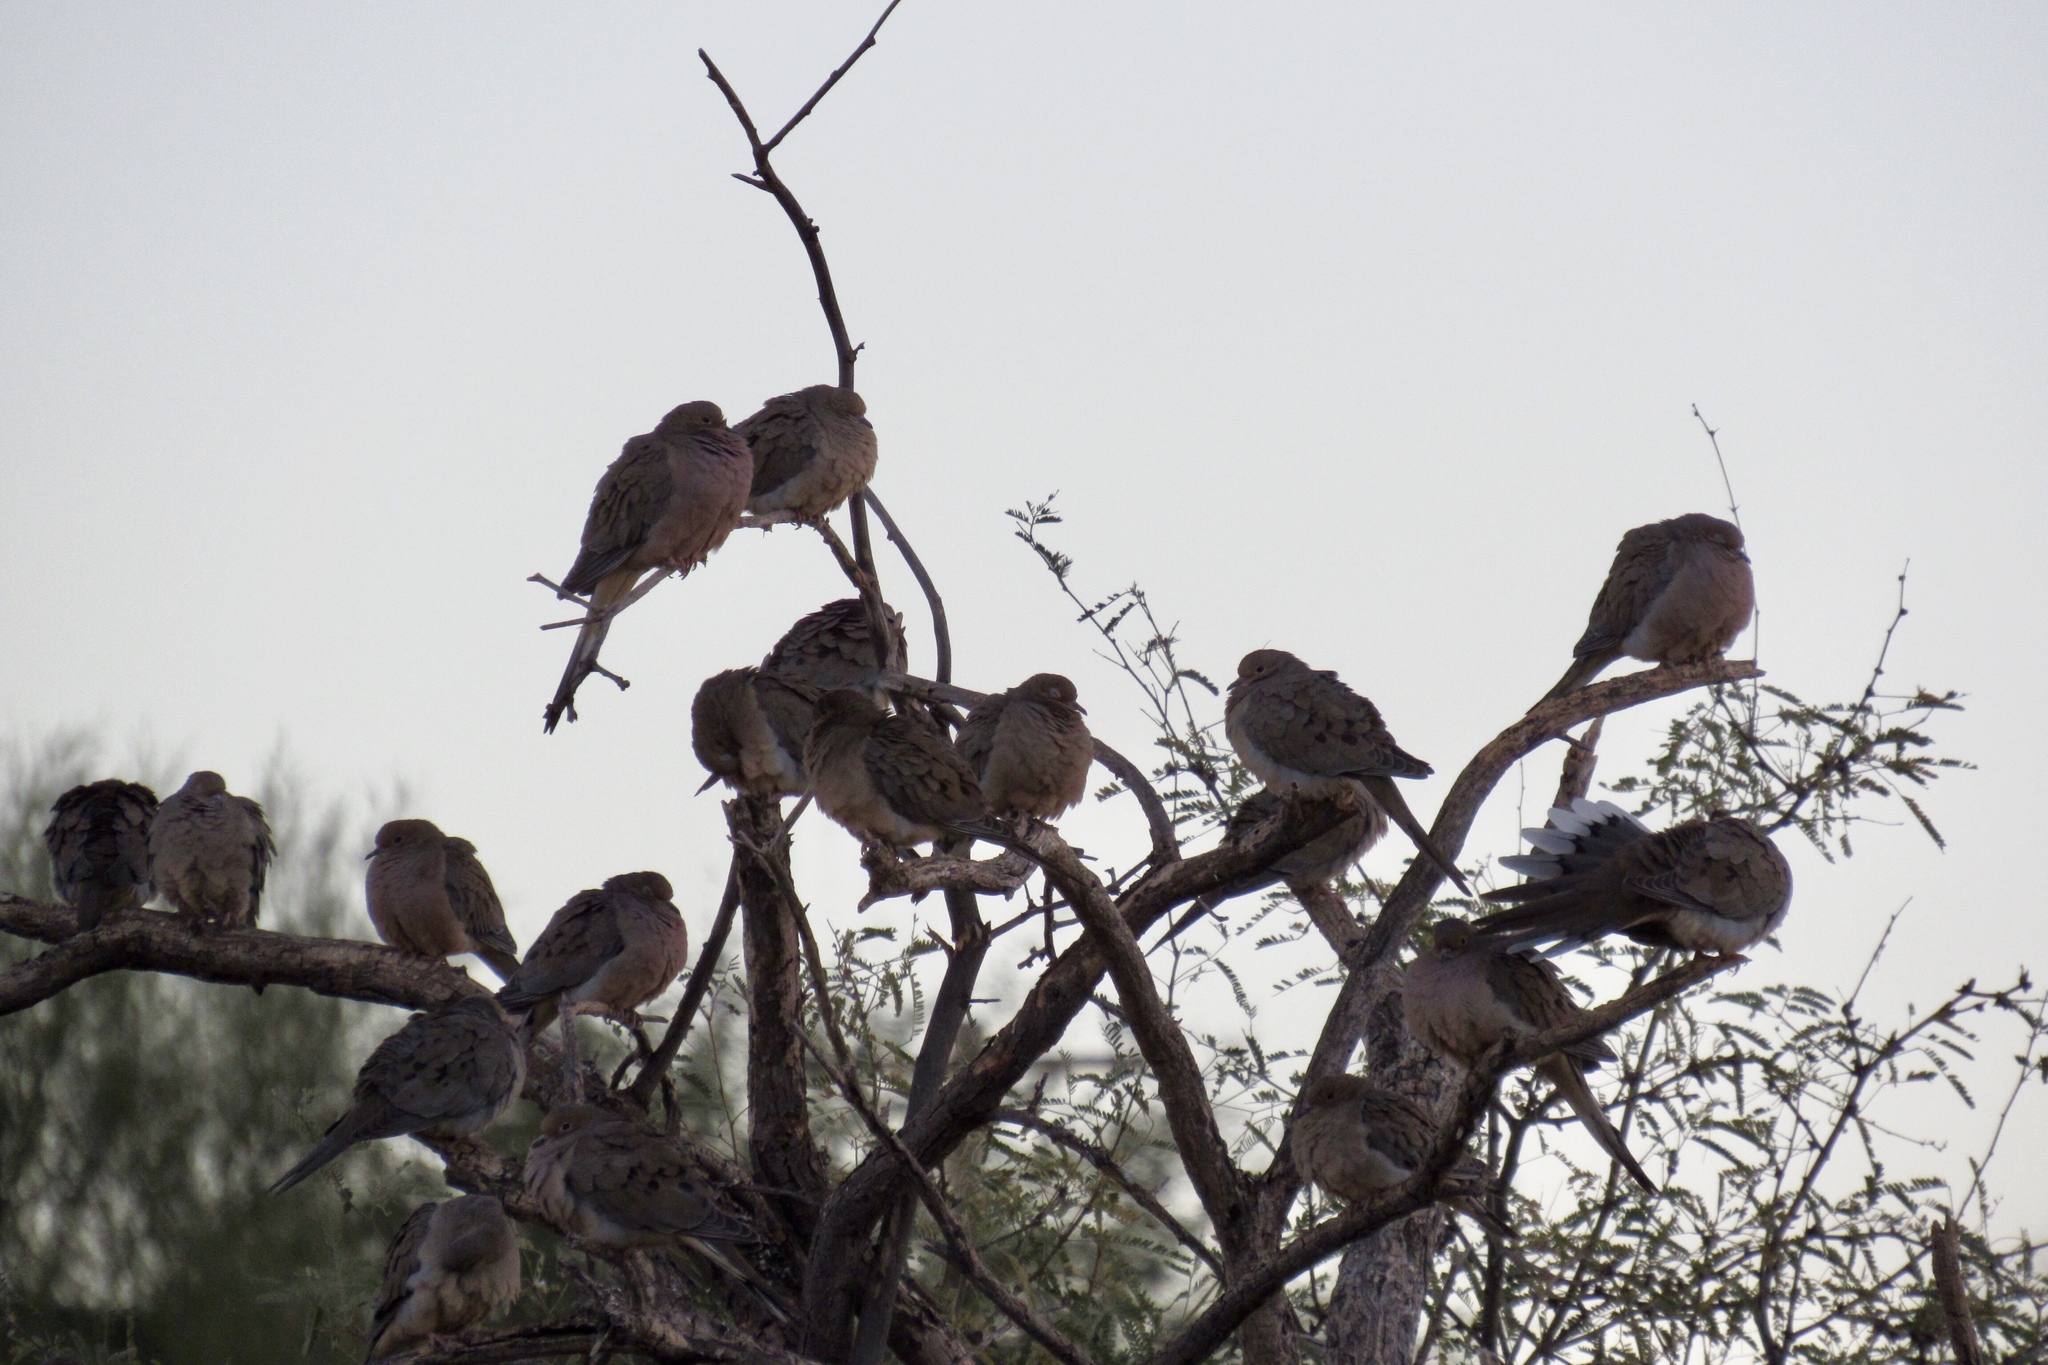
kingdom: Animalia
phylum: Chordata
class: Aves
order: Columbiformes
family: Columbidae
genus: Zenaida
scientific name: Zenaida macroura
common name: Mourning dove
